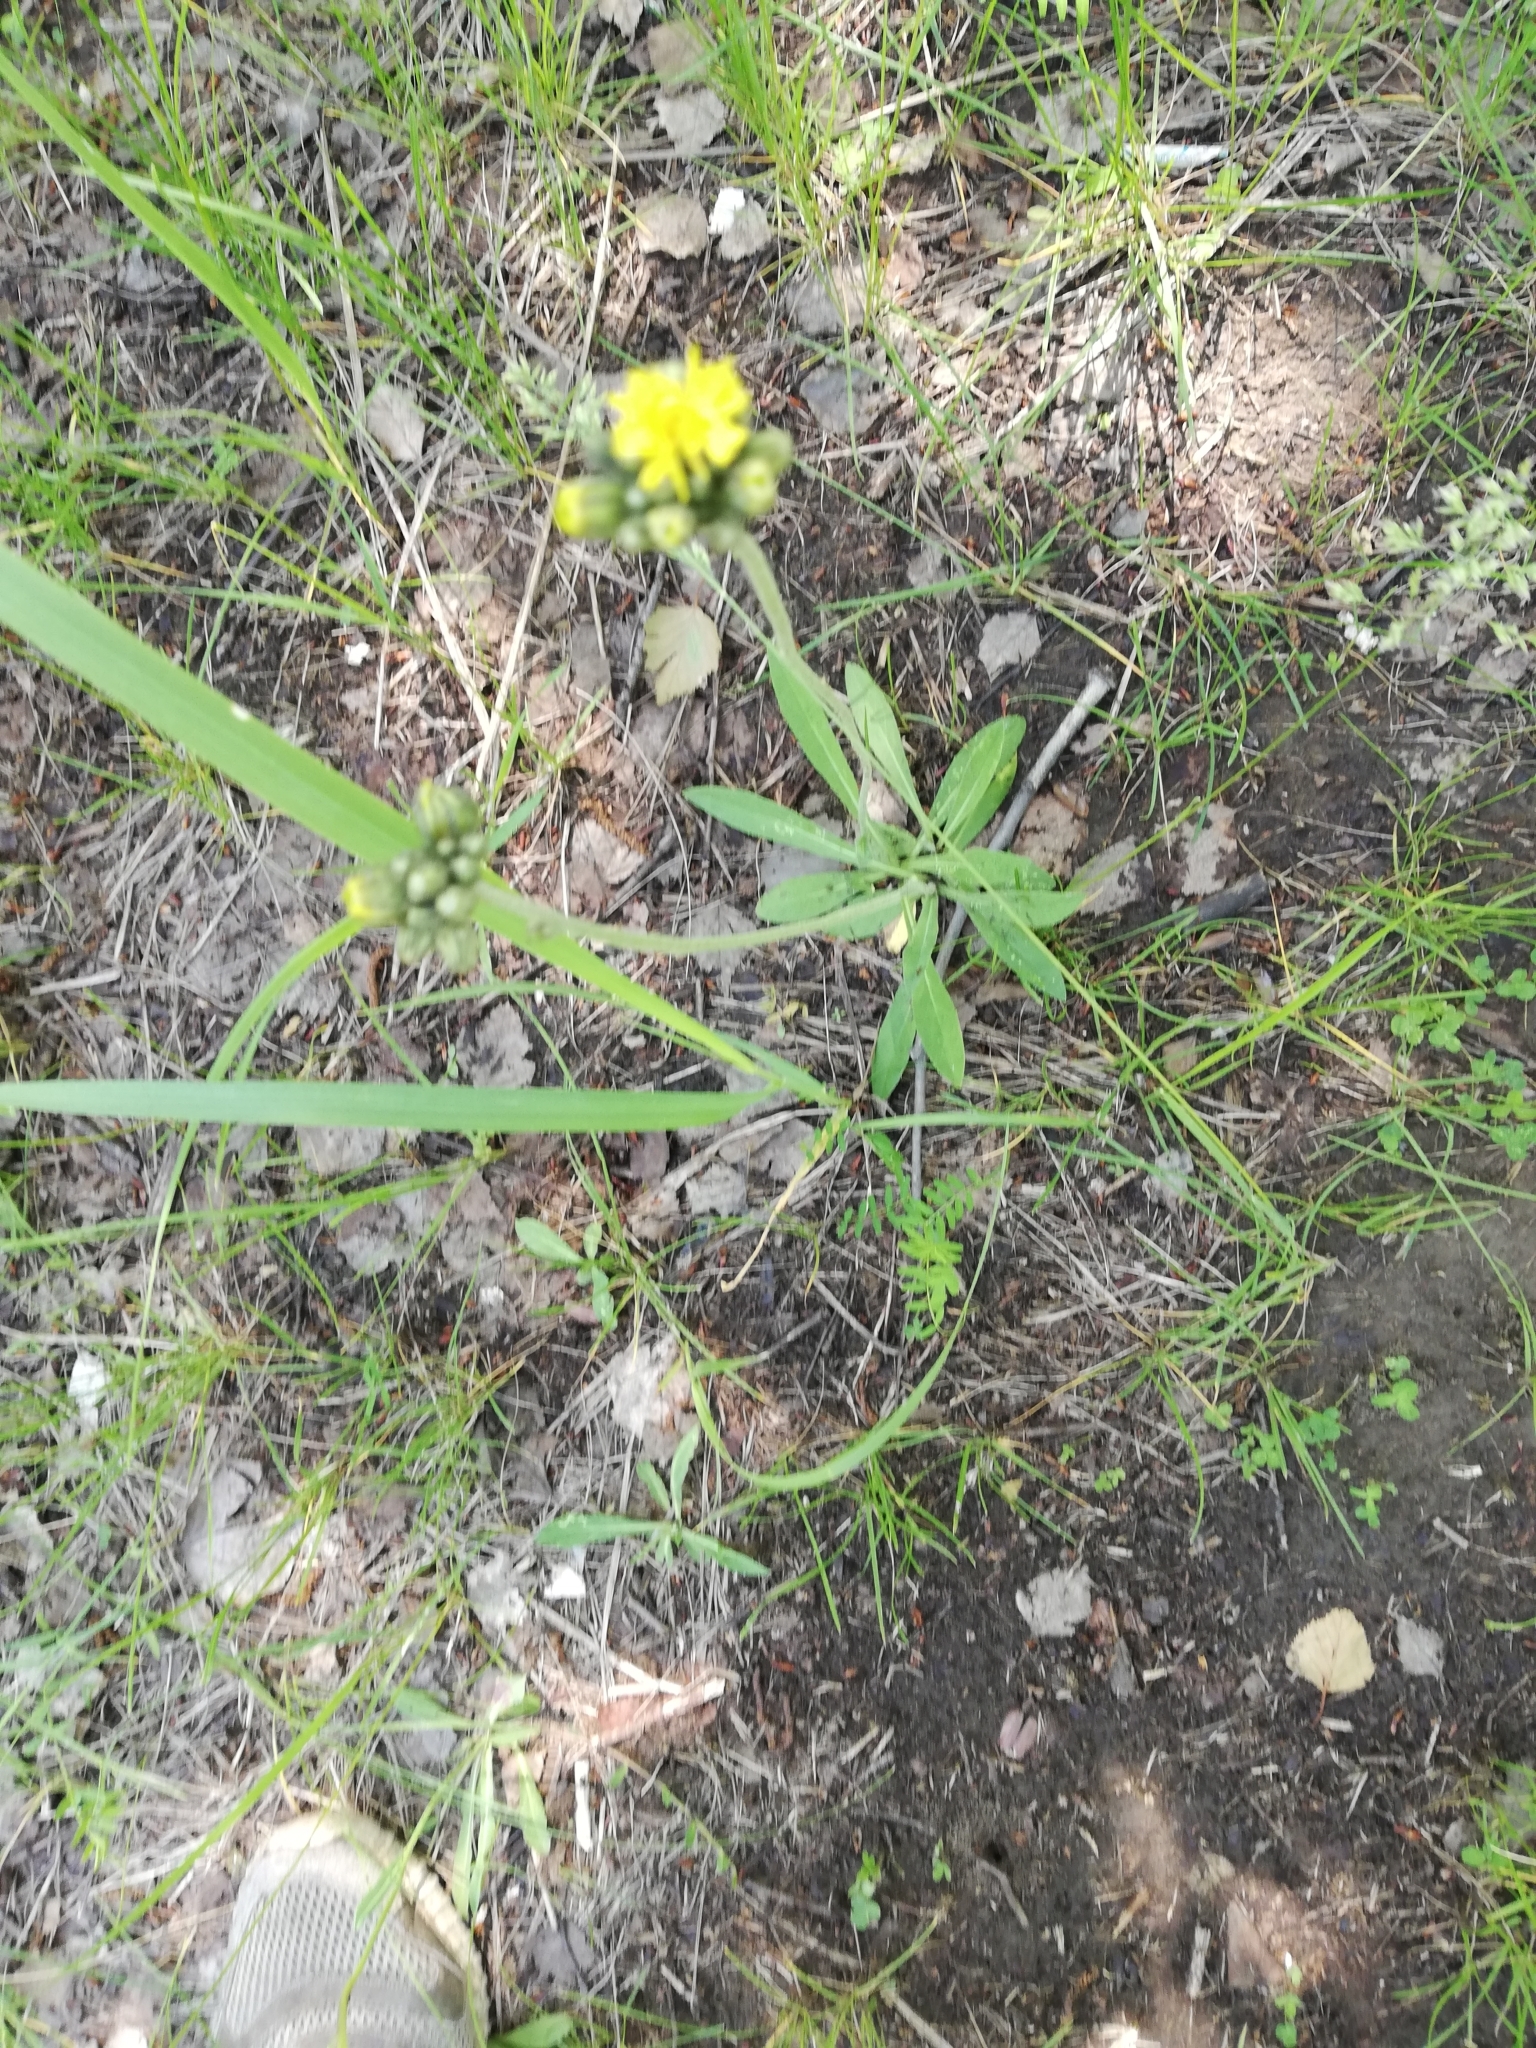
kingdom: Plantae
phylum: Tracheophyta
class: Magnoliopsida
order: Asterales
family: Asteraceae
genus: Pilosella
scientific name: Pilosella
